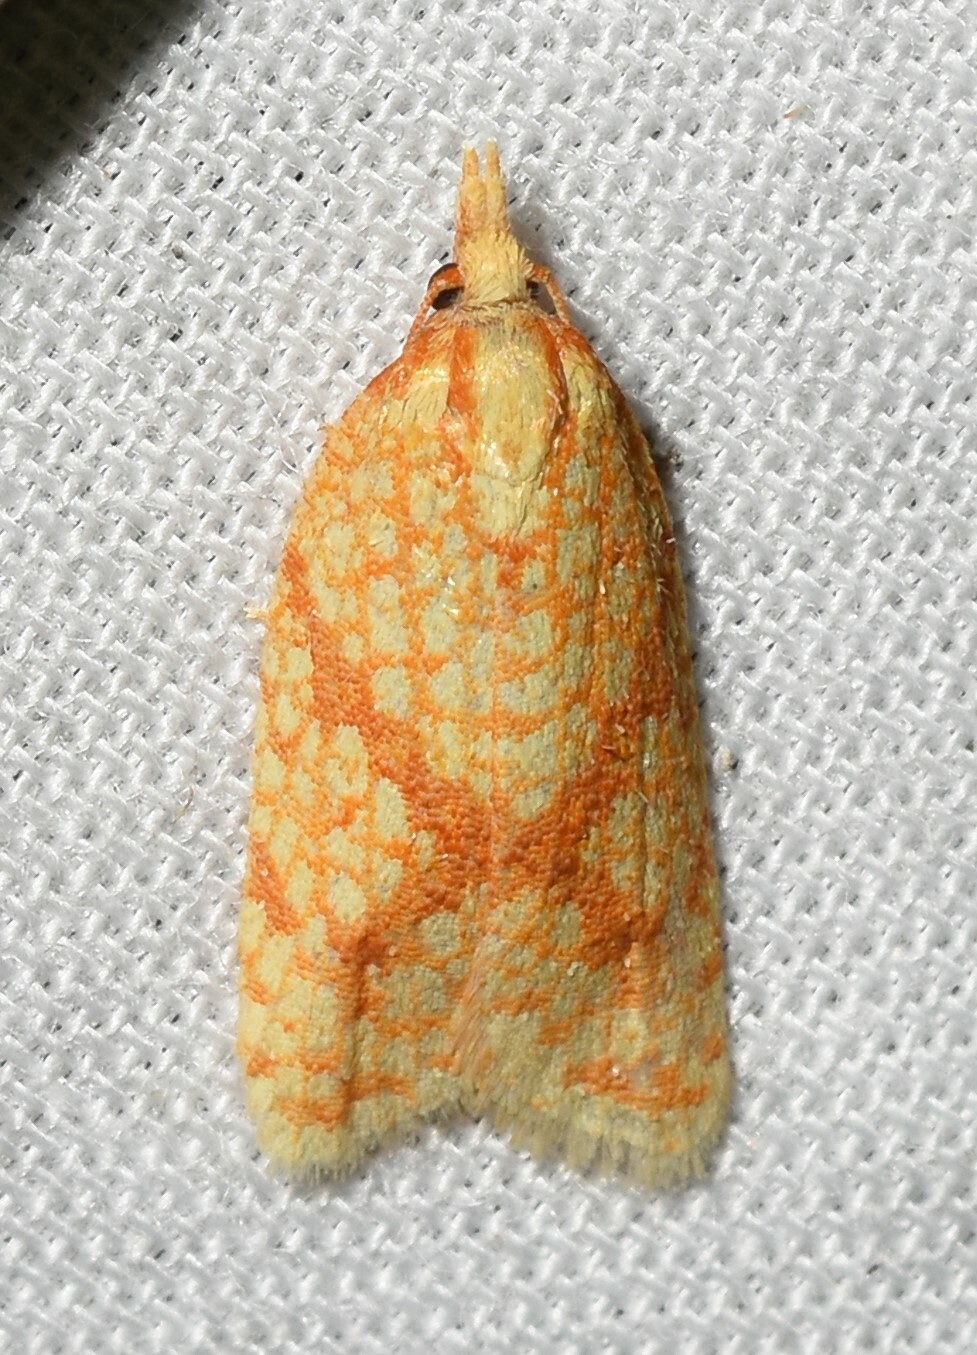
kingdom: Animalia
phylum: Arthropoda
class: Insecta
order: Lepidoptera
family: Tortricidae
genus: Sparganothis
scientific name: Sparganothis sulfureana
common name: Sparganothis fruitworm moth
